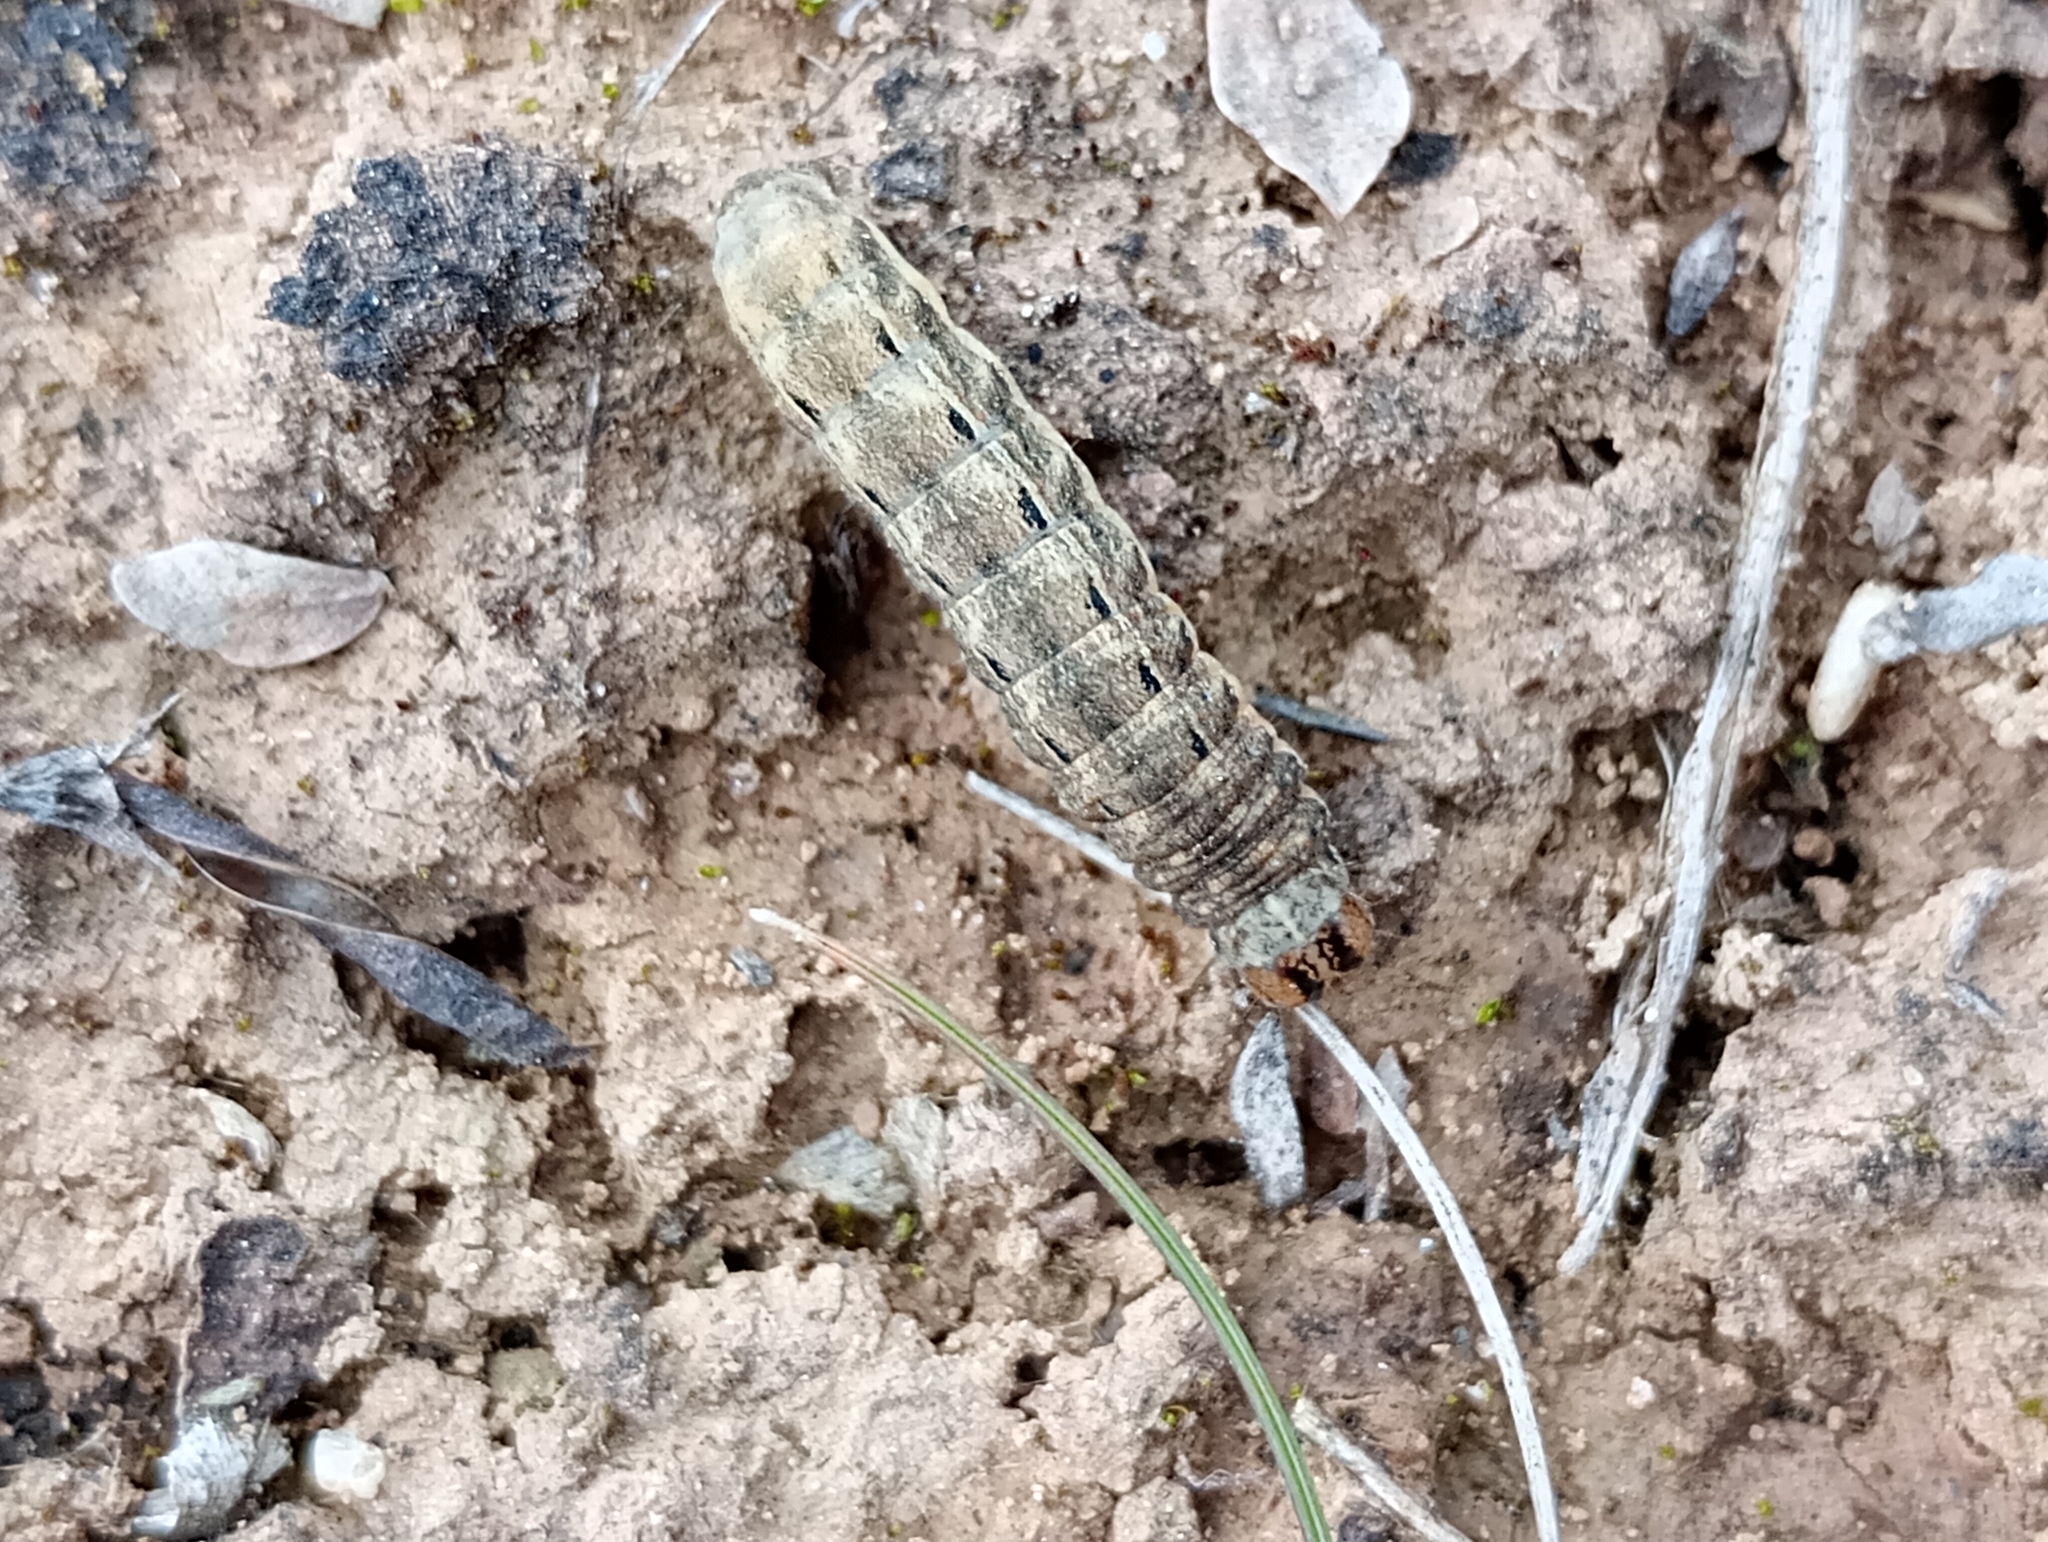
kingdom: Animalia
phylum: Arthropoda
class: Insecta
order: Lepidoptera
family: Noctuidae
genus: Noctua
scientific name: Noctua pronuba
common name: Large yellow underwing
